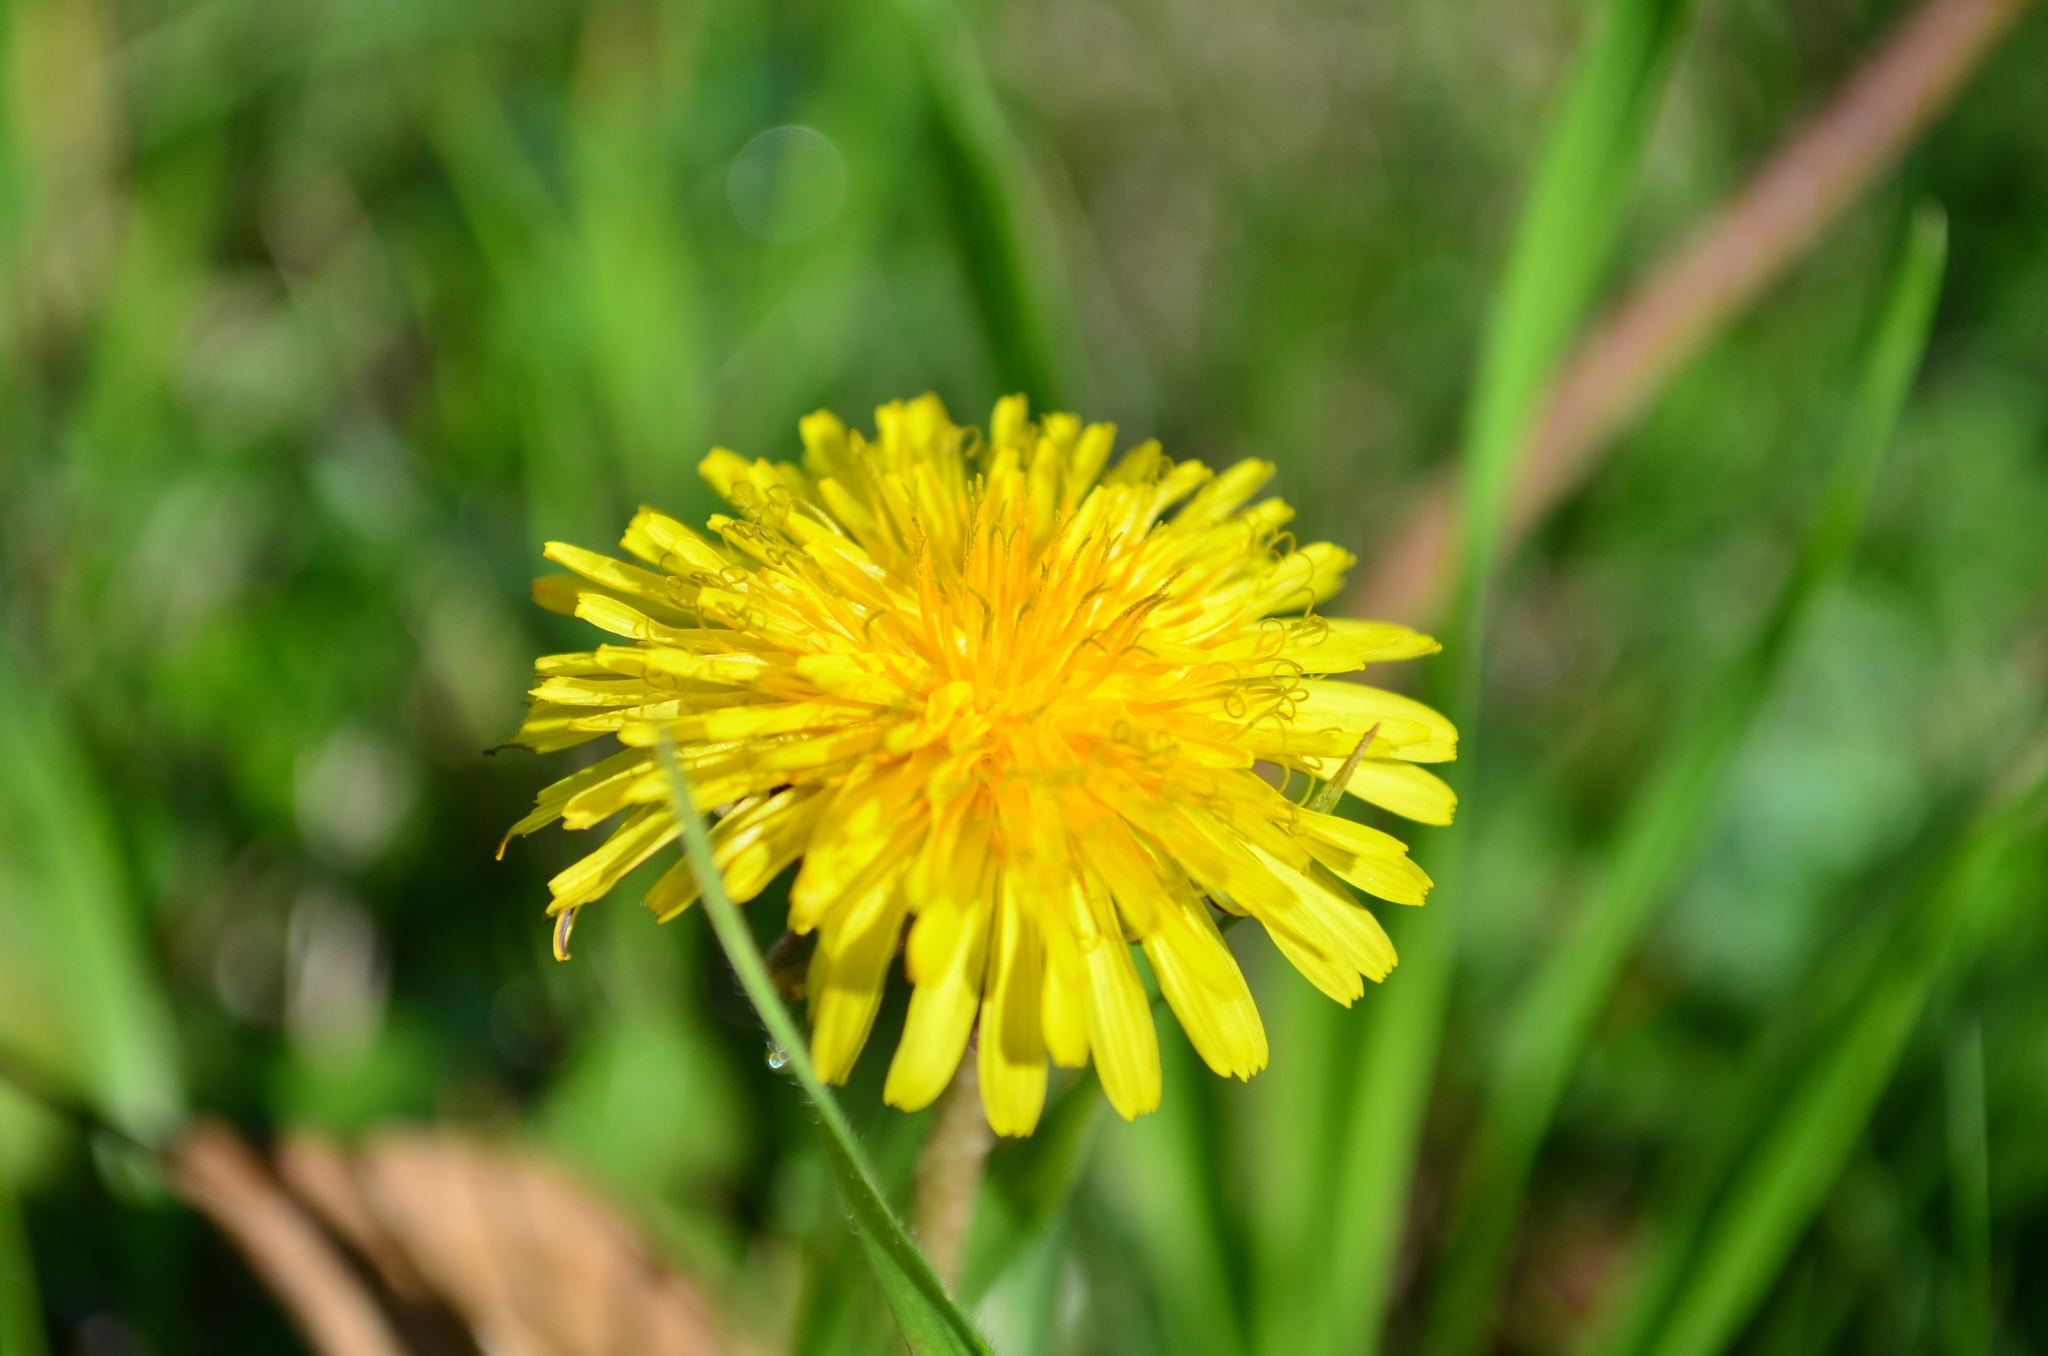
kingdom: Plantae
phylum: Tracheophyta
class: Magnoliopsida
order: Asterales
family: Asteraceae
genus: Taraxacum
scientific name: Taraxacum officinale
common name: Common dandelion
